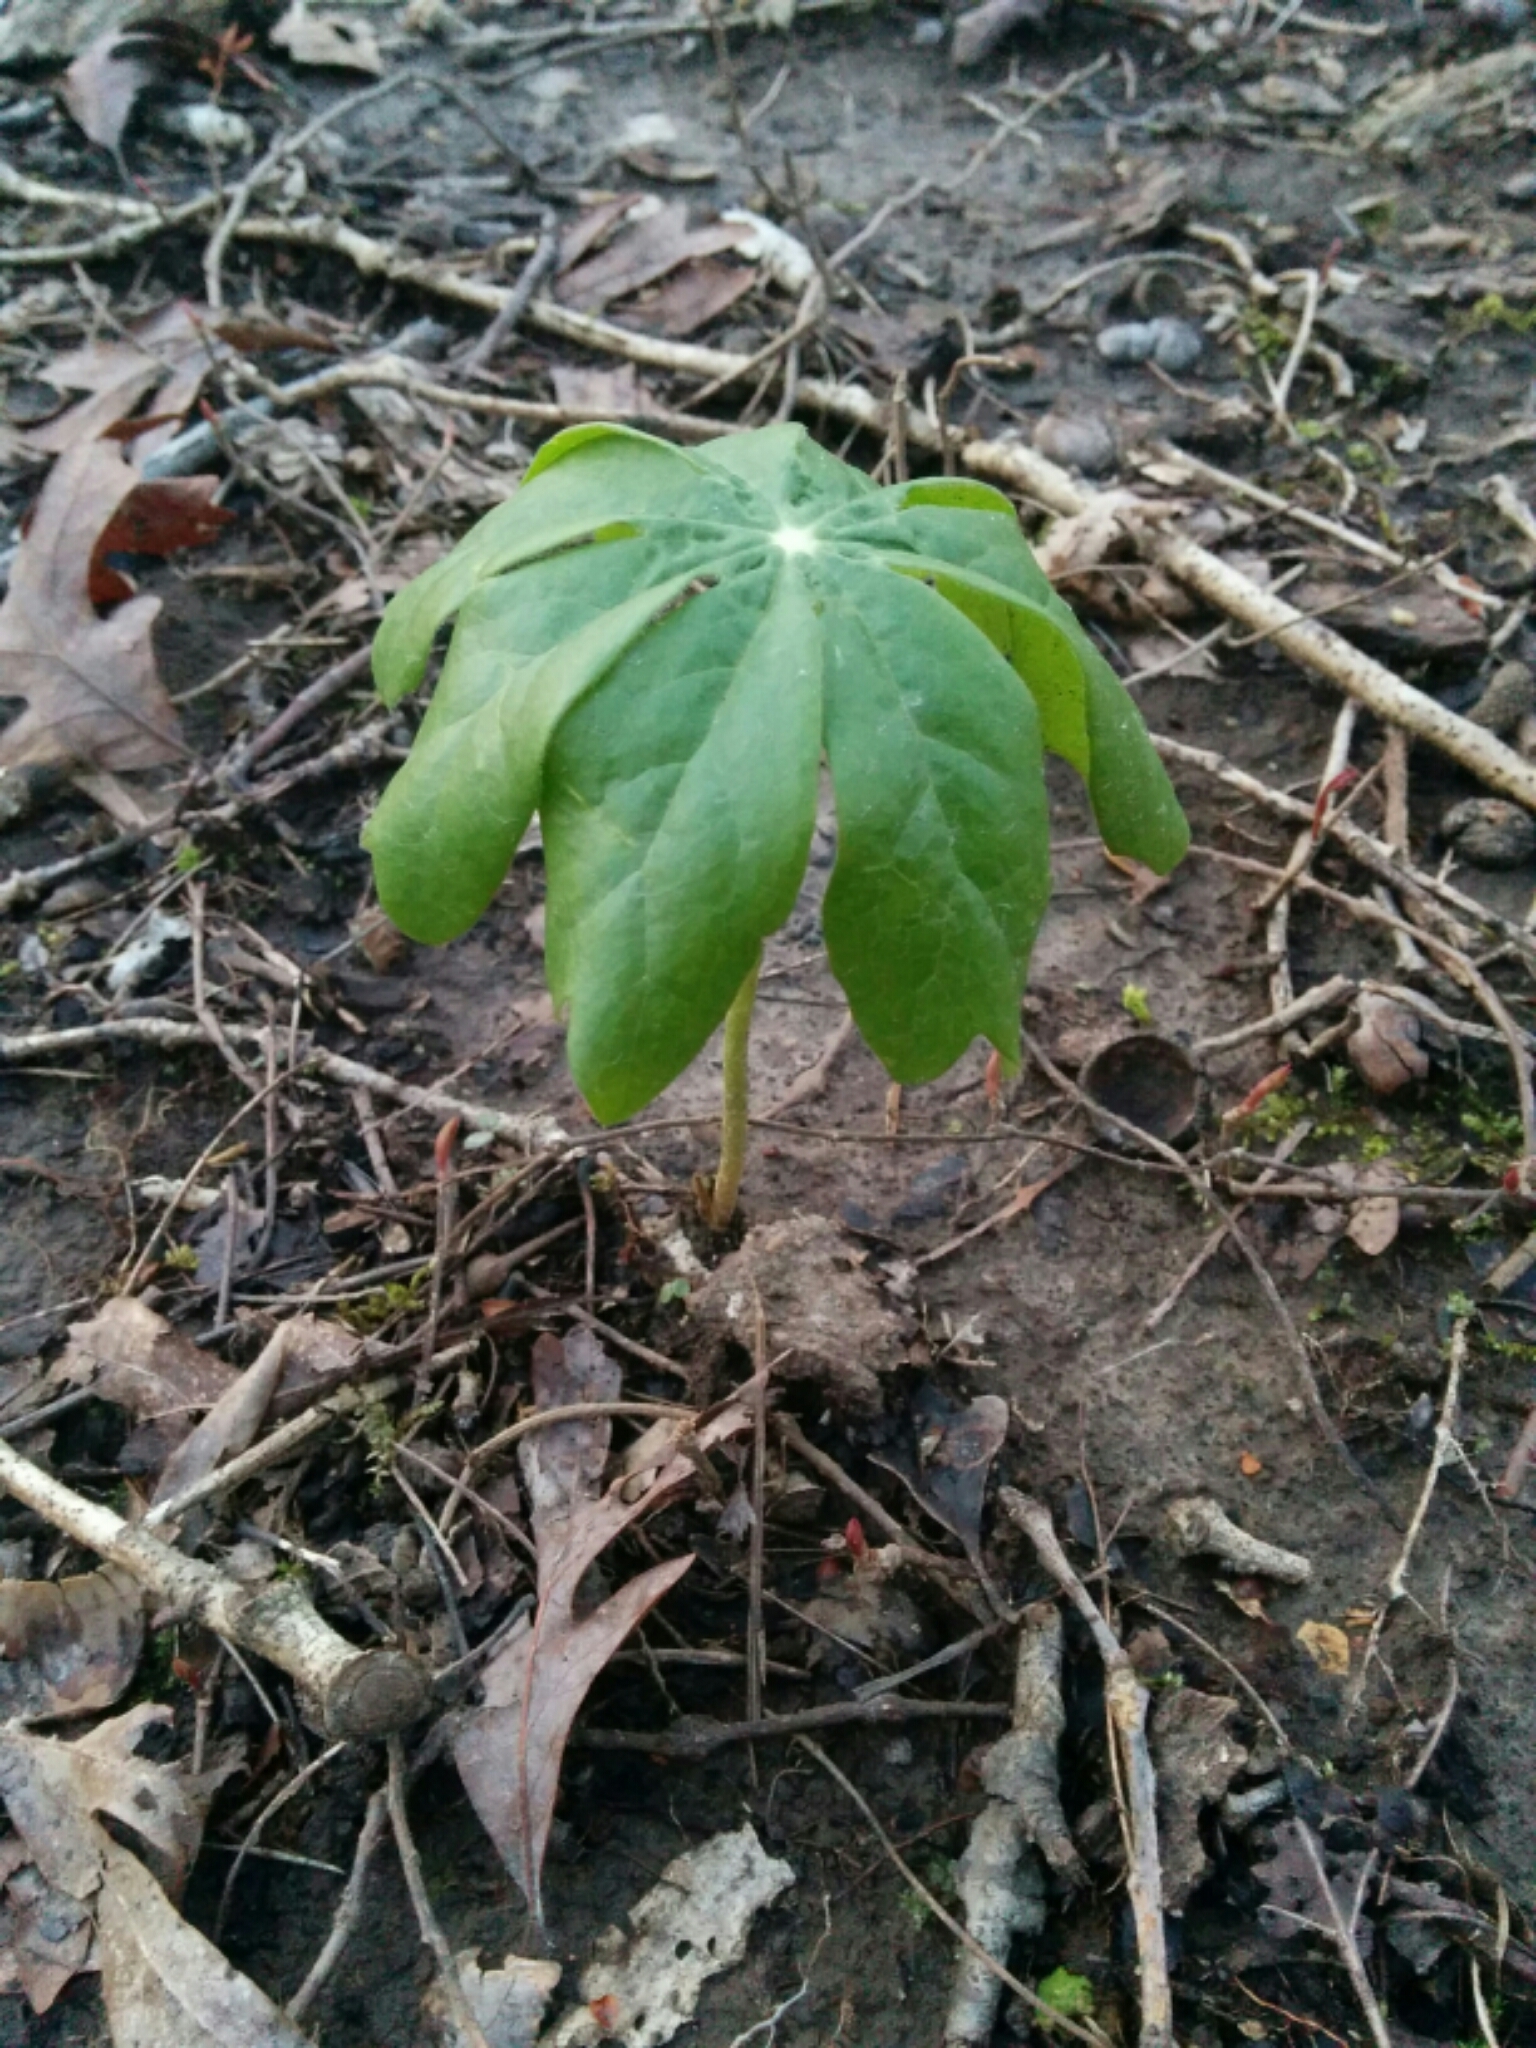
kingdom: Plantae
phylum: Tracheophyta
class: Magnoliopsida
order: Ranunculales
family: Berberidaceae
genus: Podophyllum
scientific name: Podophyllum peltatum
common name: Wild mandrake
